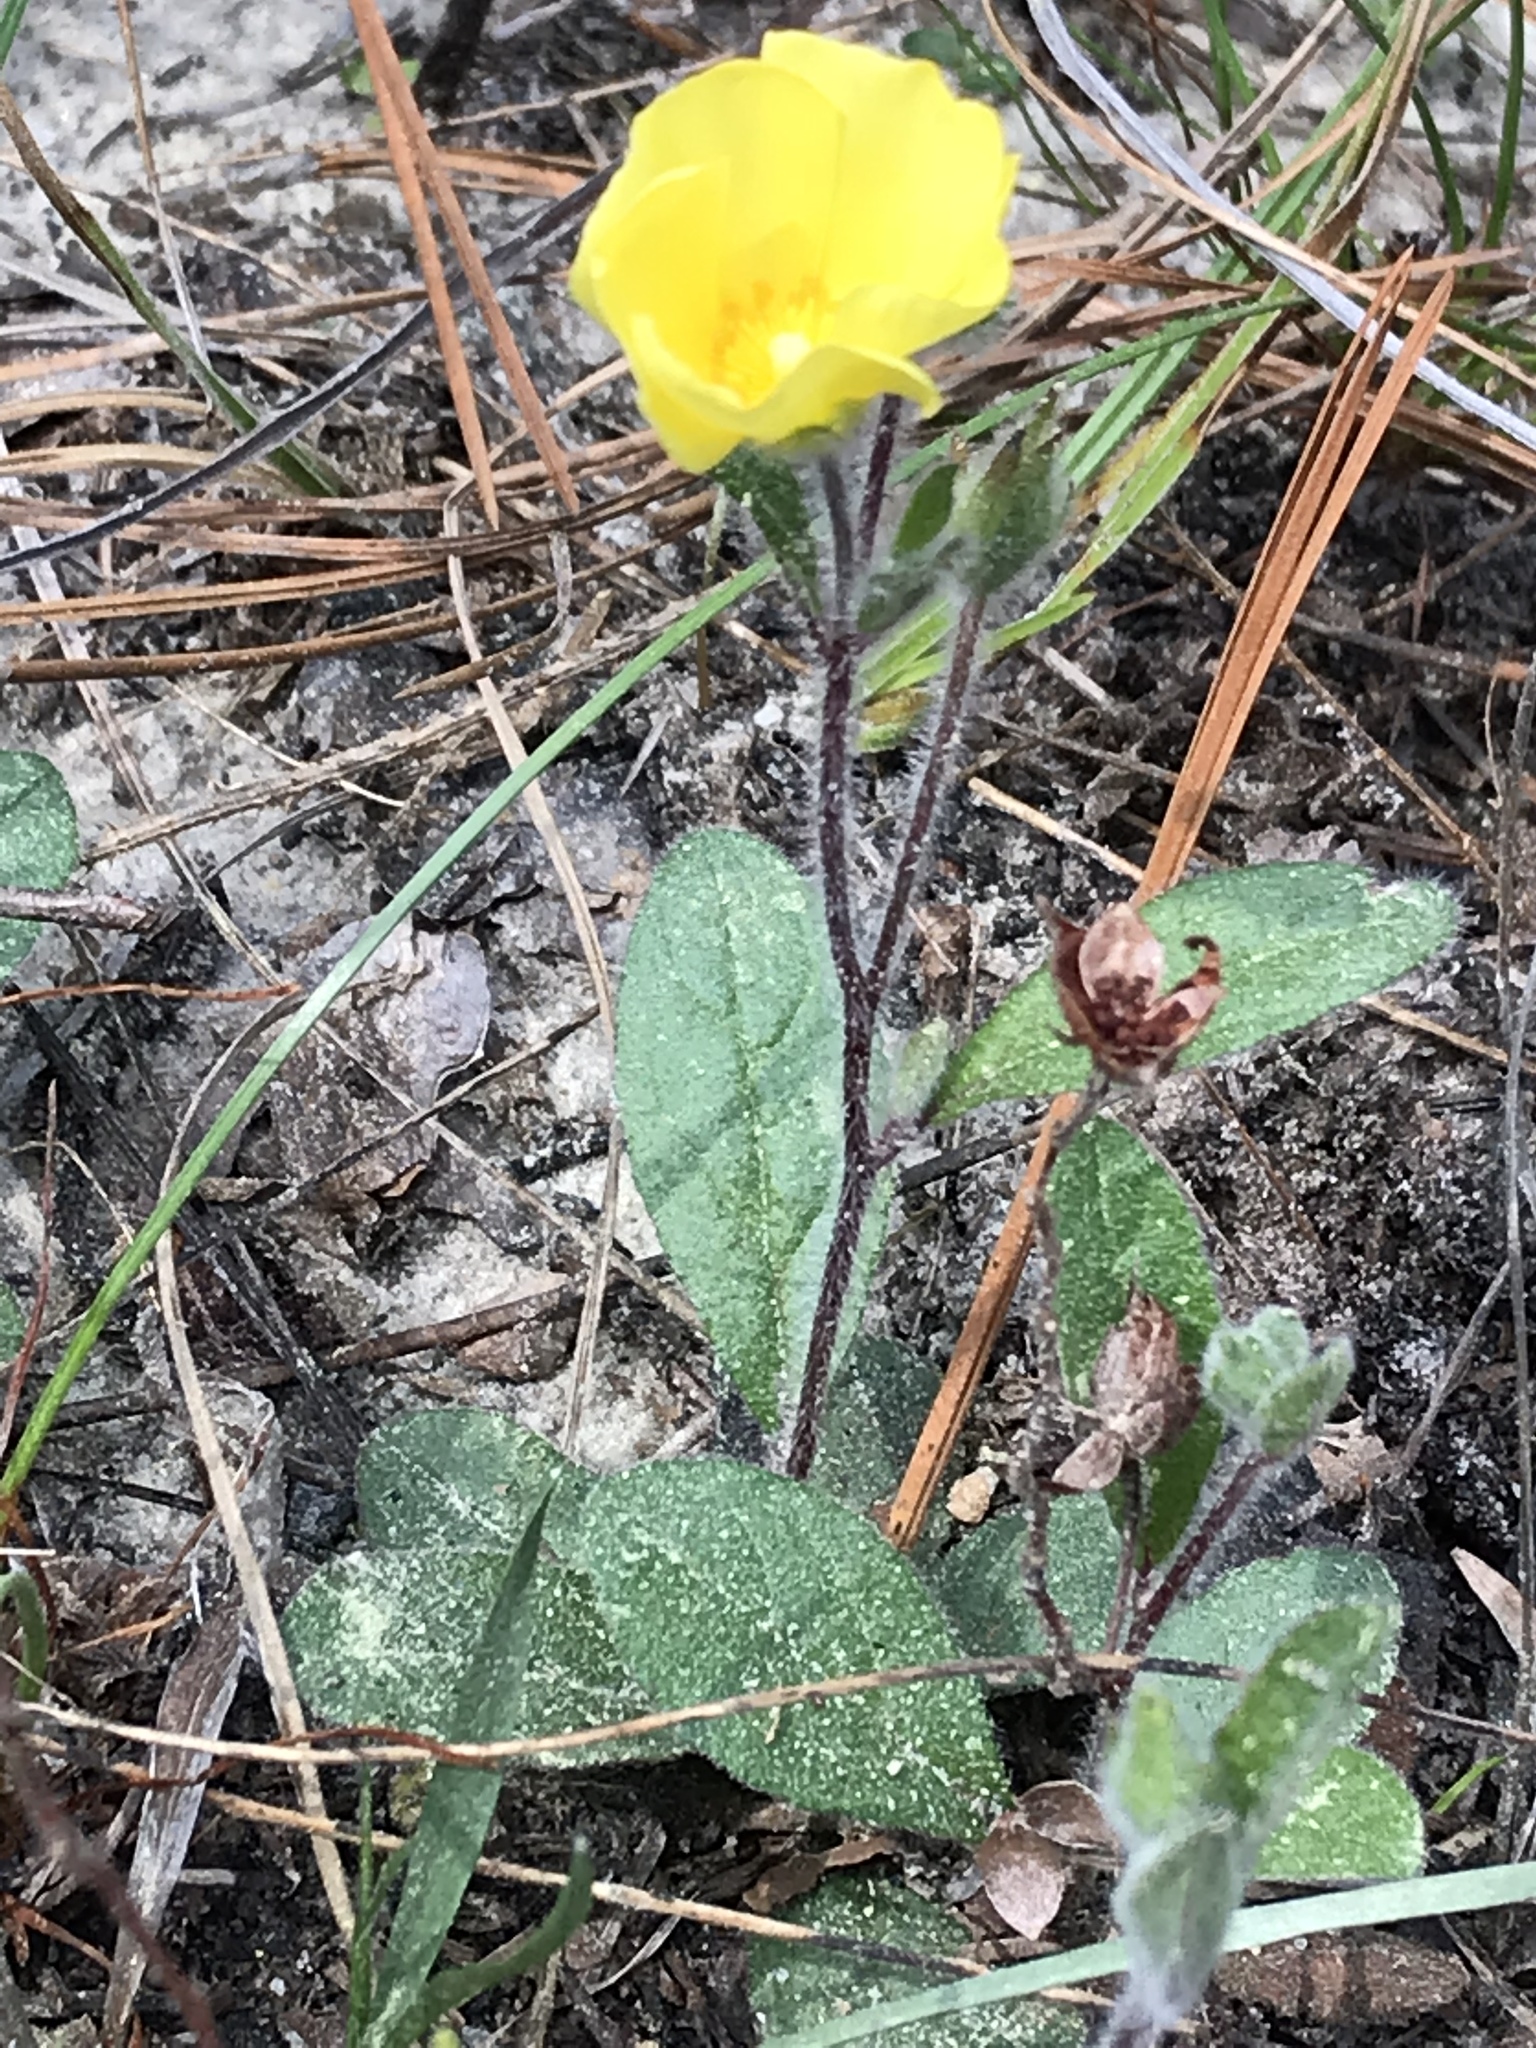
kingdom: Plantae
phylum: Tracheophyta
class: Magnoliopsida
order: Malvales
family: Cistaceae
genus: Crocanthemum
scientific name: Crocanthemum carolinianum
